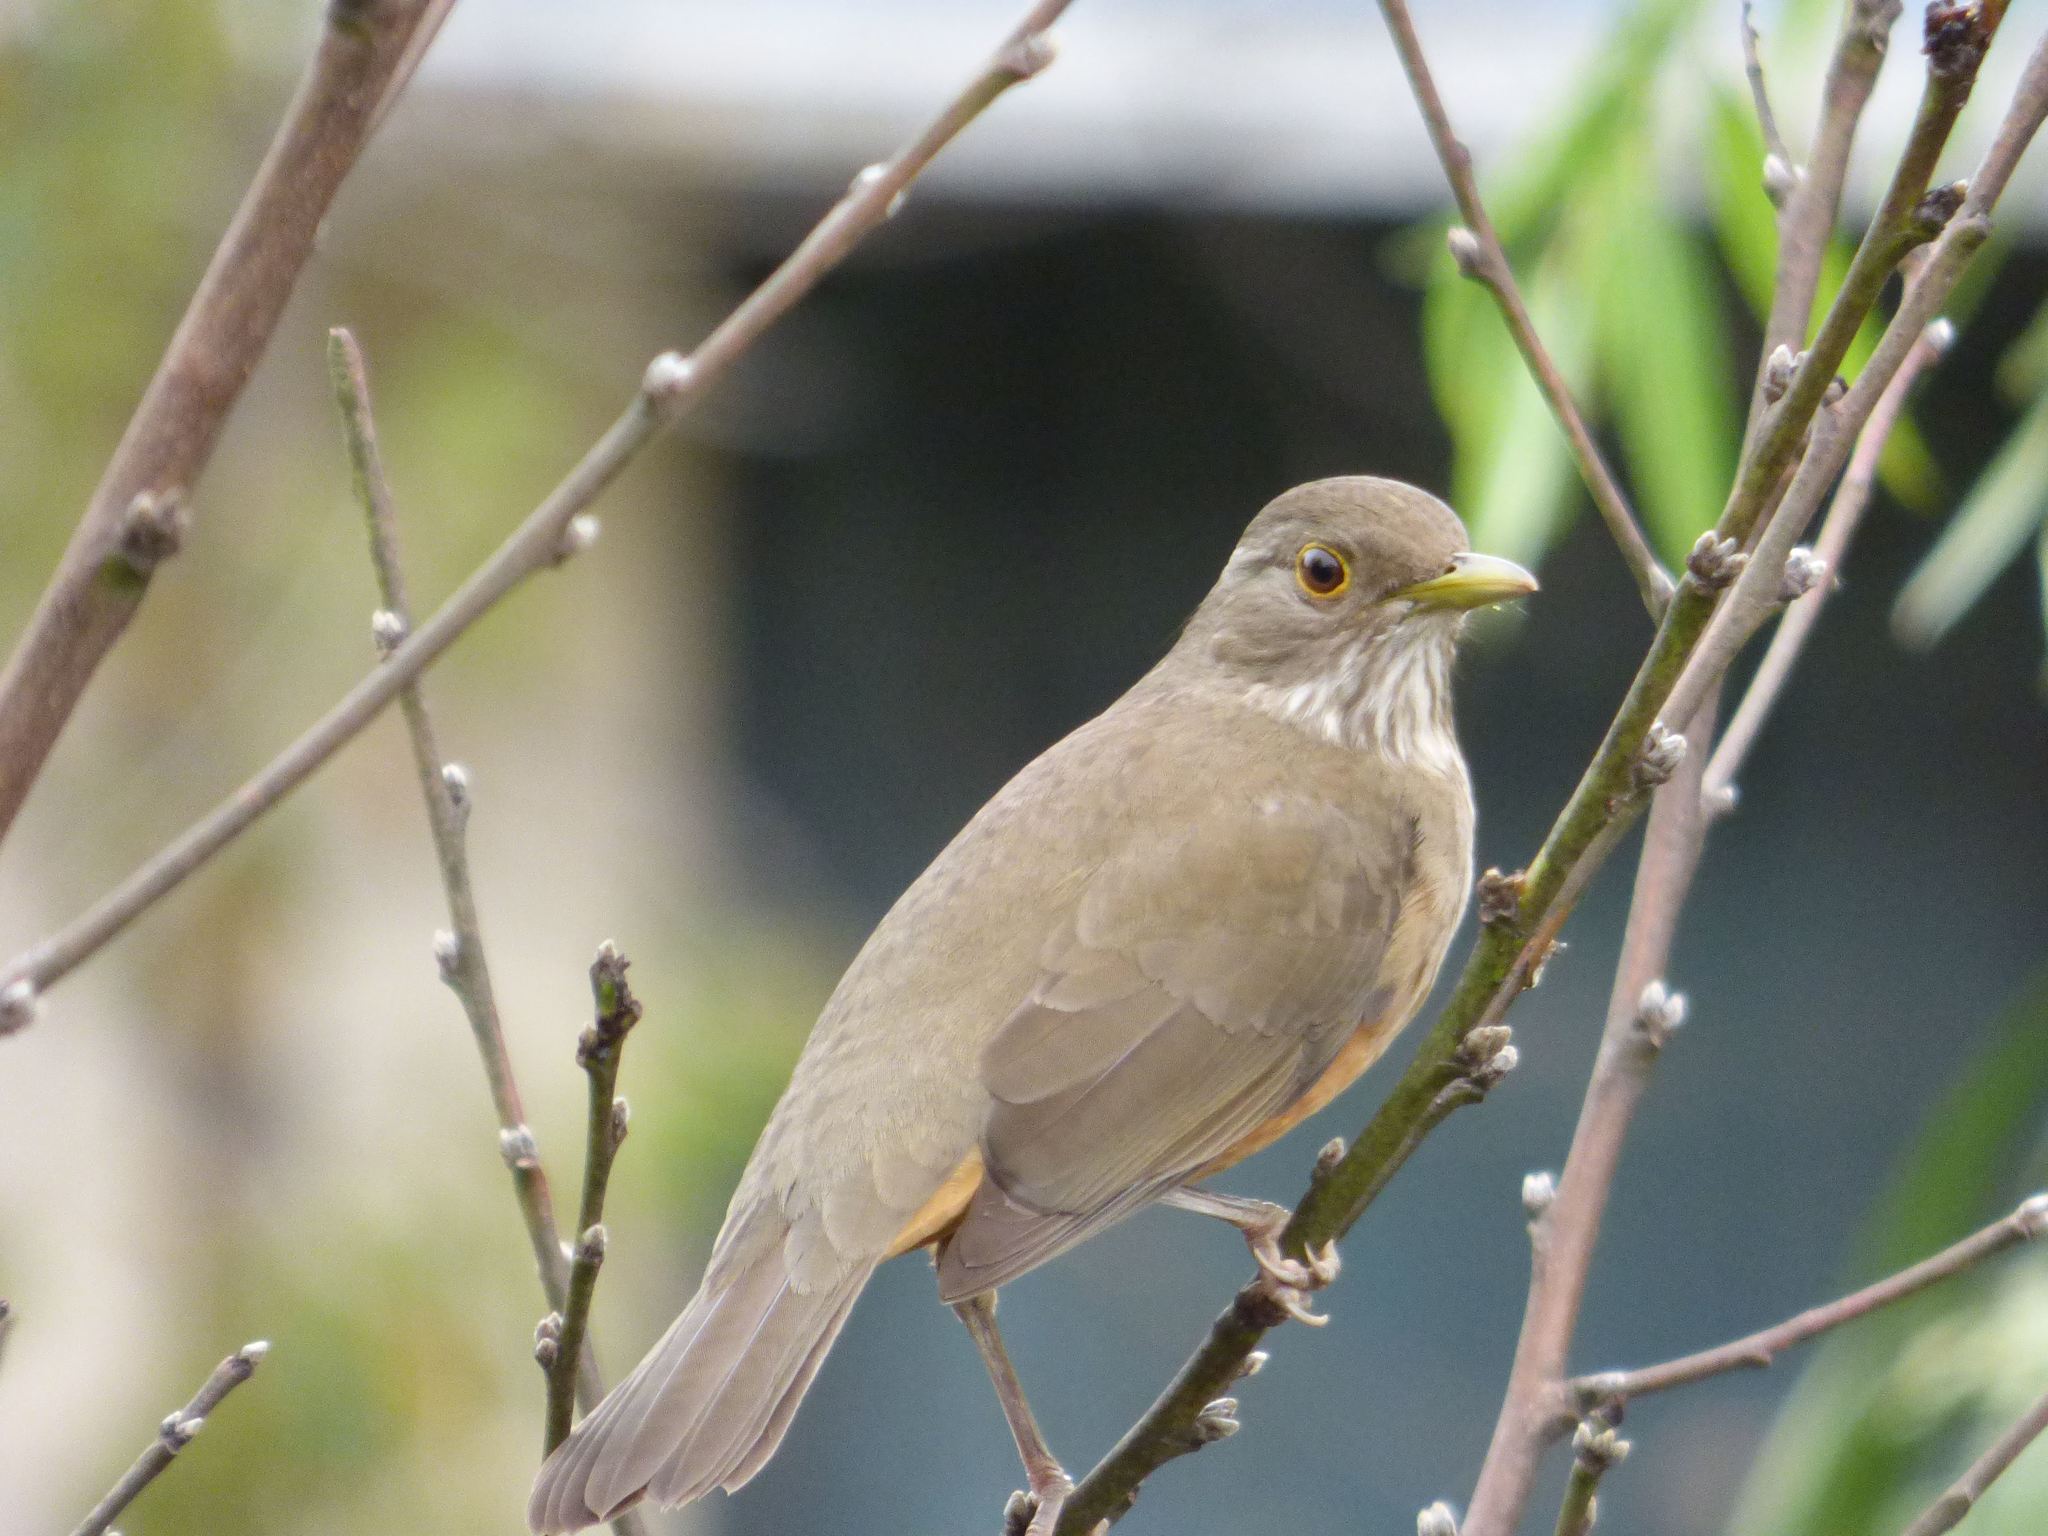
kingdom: Animalia
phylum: Chordata
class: Aves
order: Passeriformes
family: Turdidae
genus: Turdus
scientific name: Turdus rufiventris
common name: Rufous-bellied thrush
